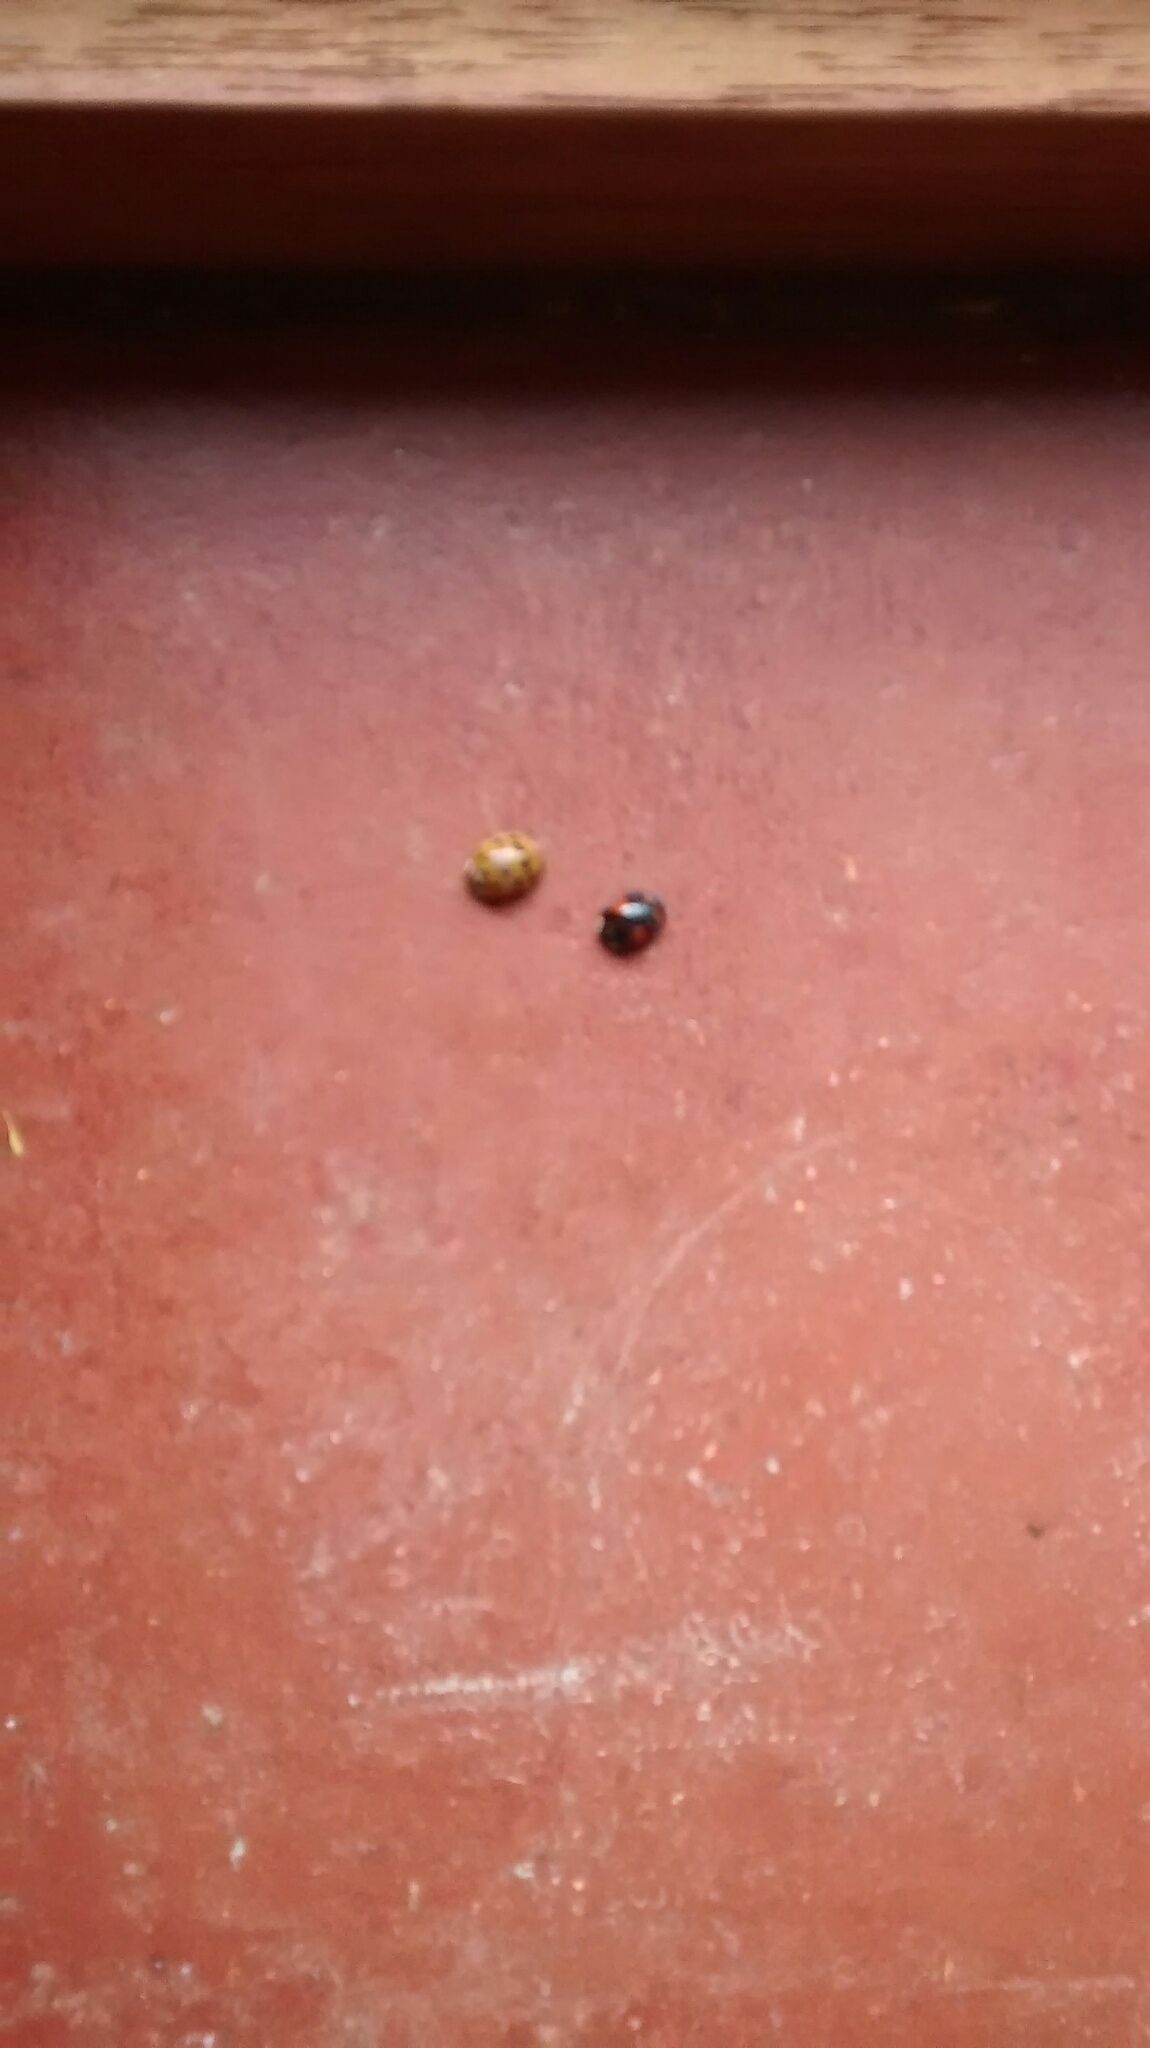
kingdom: Animalia
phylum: Arthropoda
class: Insecta
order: Coleoptera
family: Coccinellidae
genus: Harmonia
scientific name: Harmonia axyridis
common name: Harlequin ladybird
